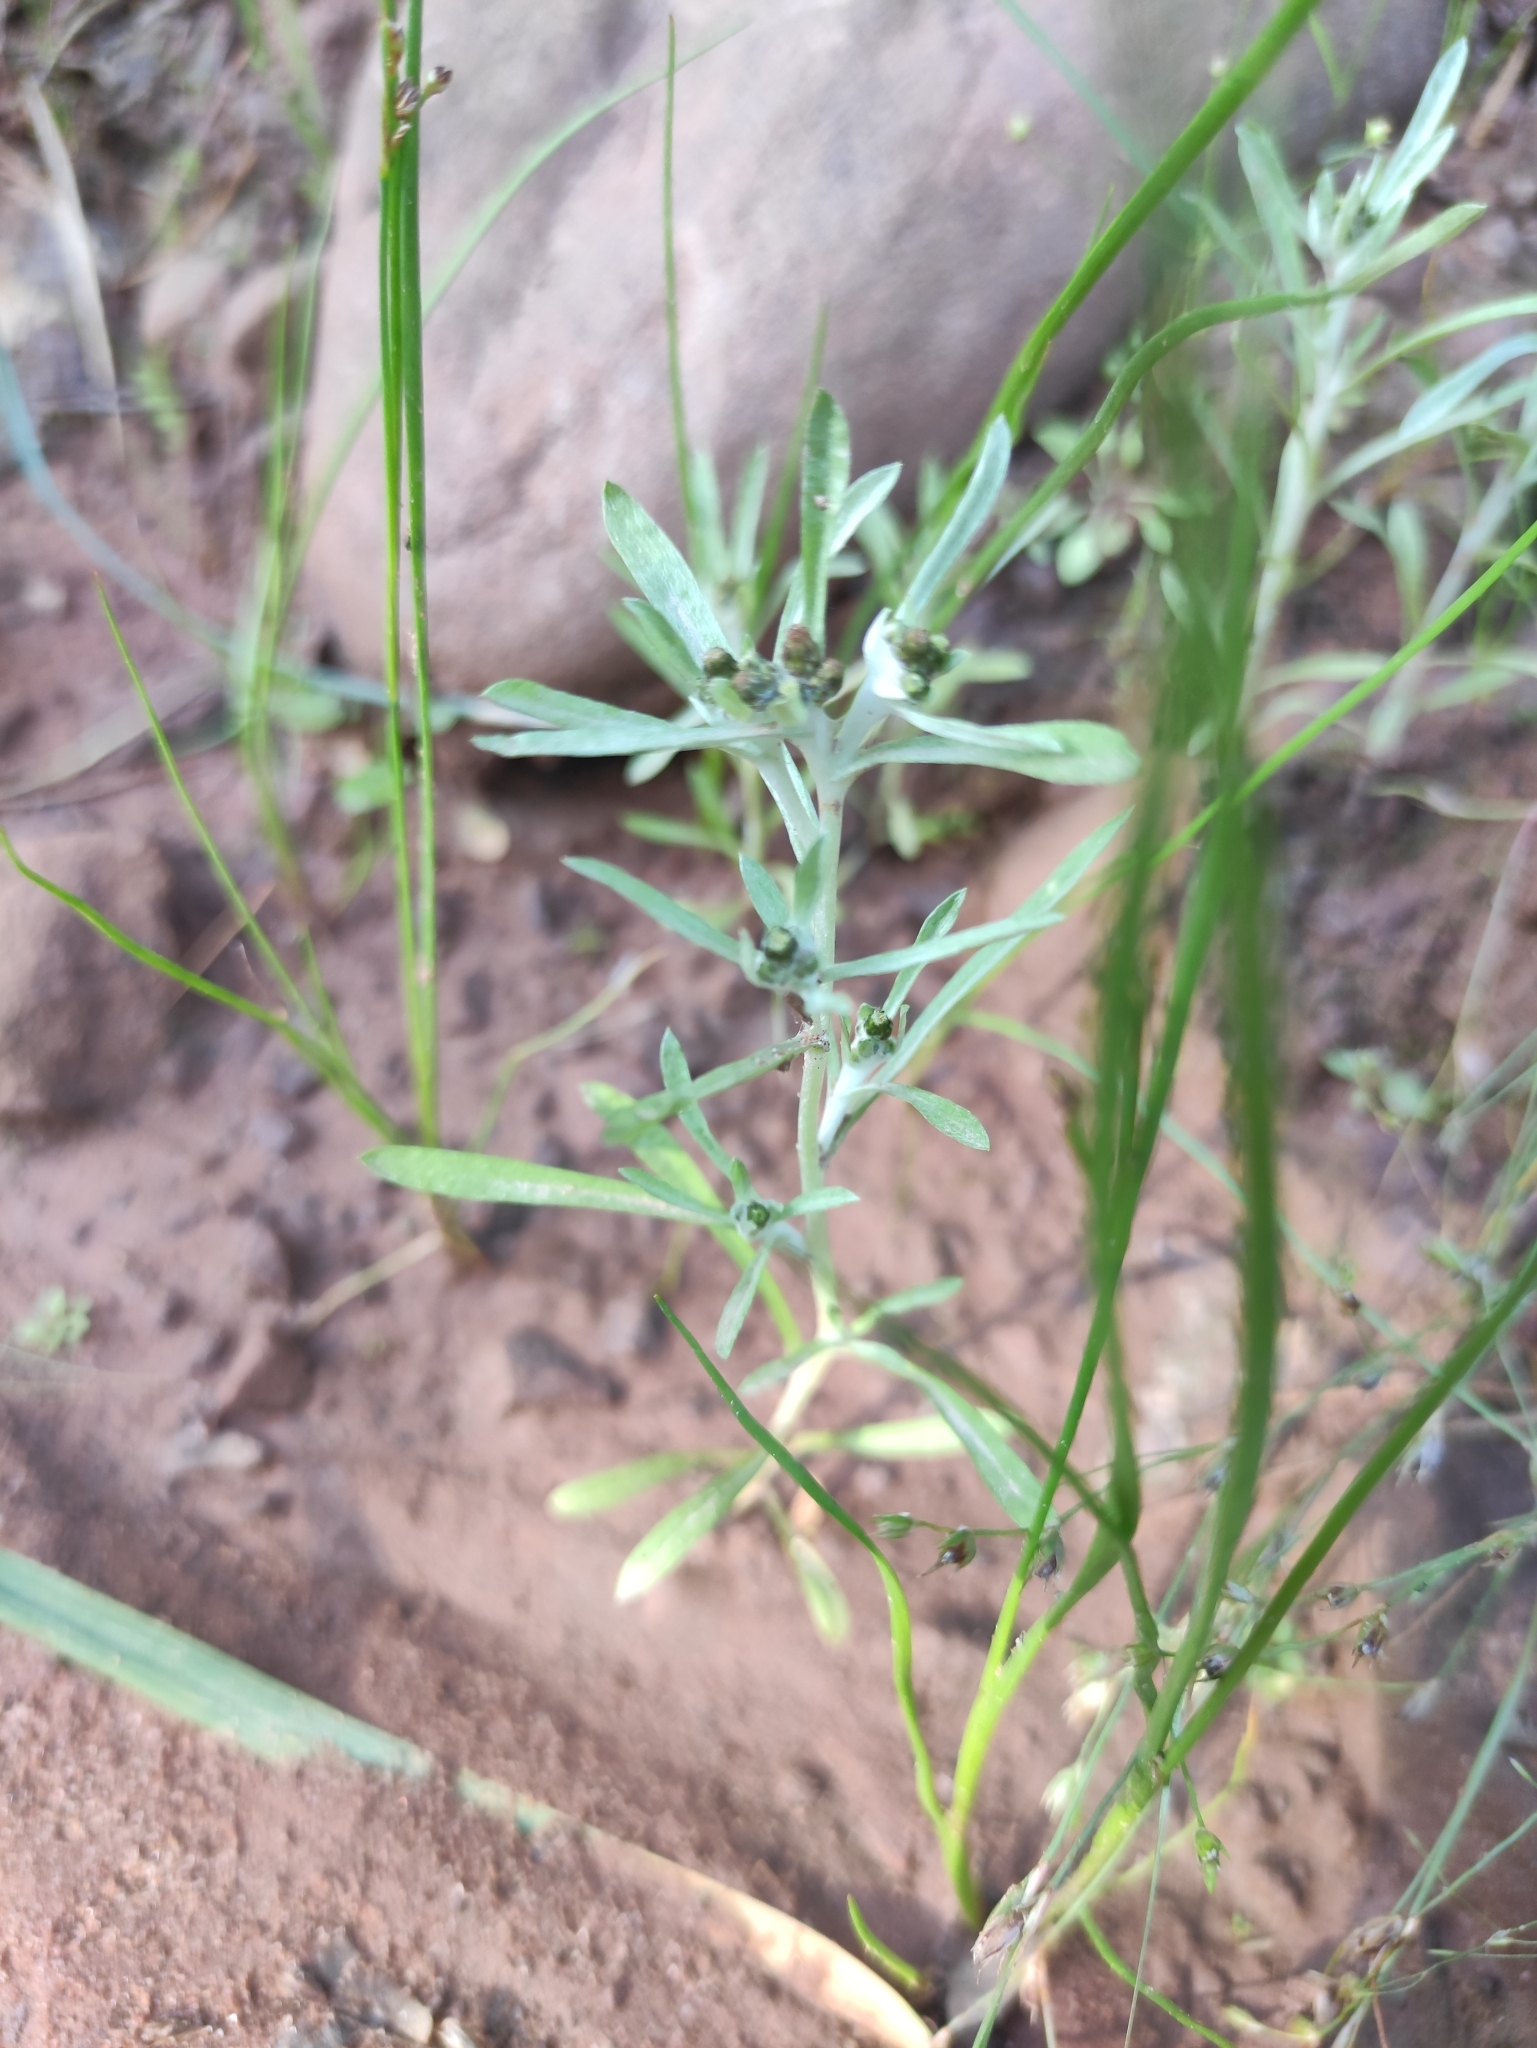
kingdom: Plantae
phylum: Tracheophyta
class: Magnoliopsida
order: Asterales
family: Asteraceae
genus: Gnaphalium
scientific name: Gnaphalium uliginosum
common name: Marsh cudweed
